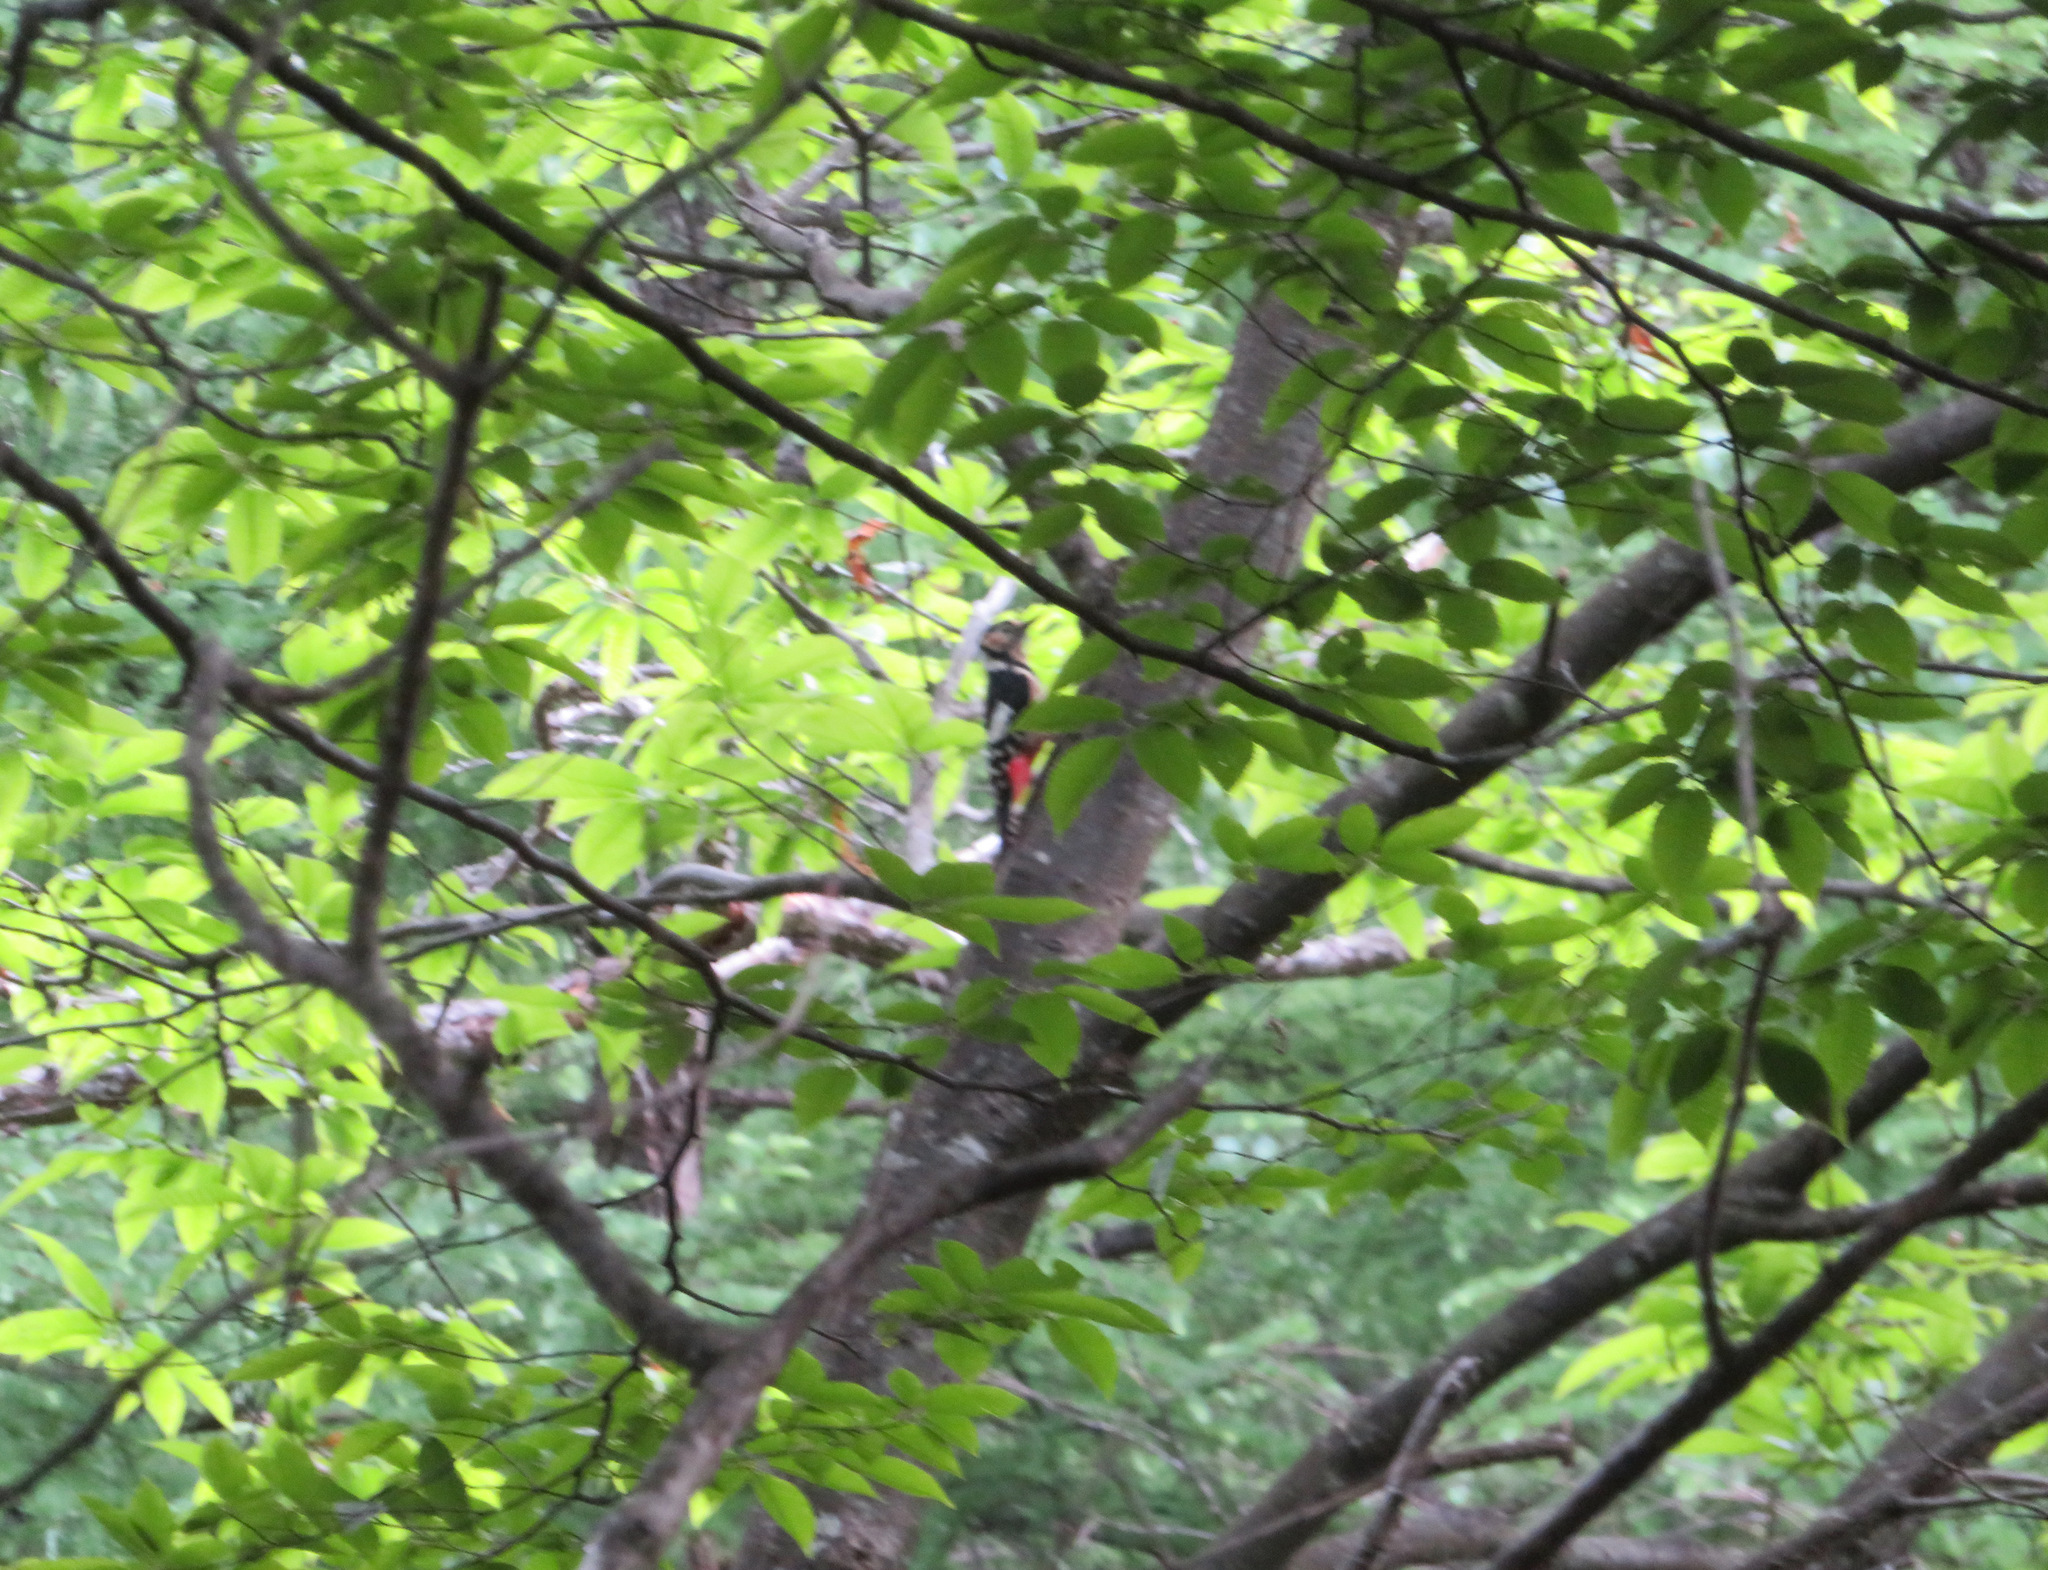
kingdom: Animalia
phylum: Chordata
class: Aves
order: Piciformes
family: Picidae
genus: Dendrocopos
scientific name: Dendrocopos major
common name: Great spotted woodpecker
